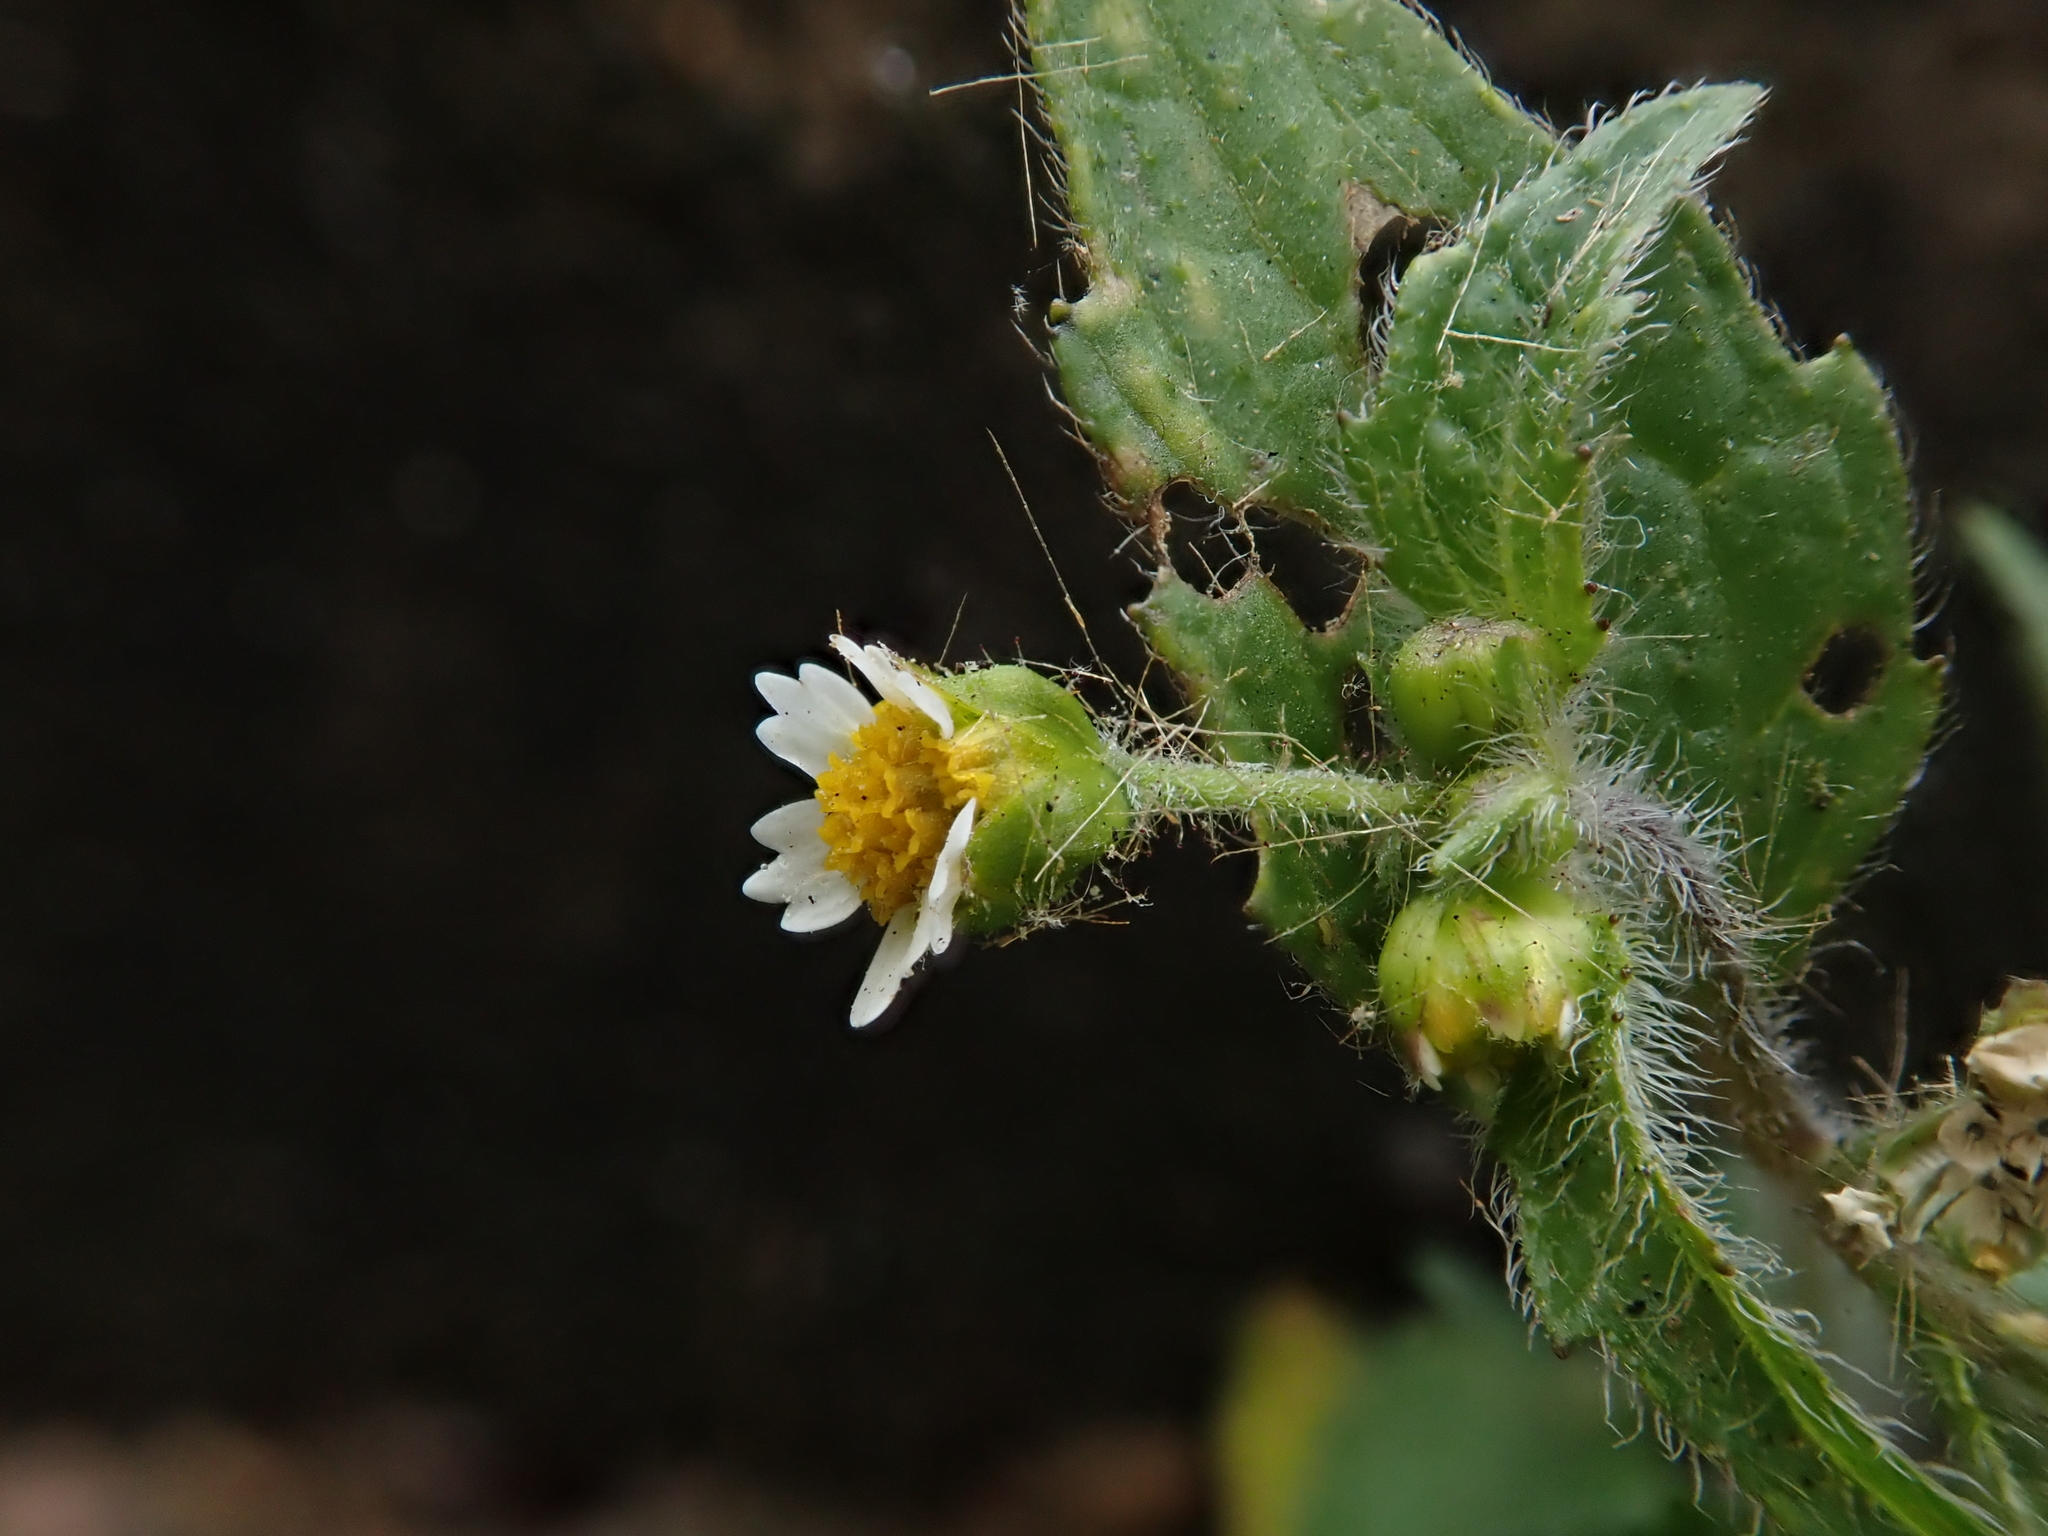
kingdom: Plantae
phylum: Tracheophyta
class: Magnoliopsida
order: Asterales
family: Asteraceae
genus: Galinsoga
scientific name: Galinsoga quadriradiata
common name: Shaggy soldier
